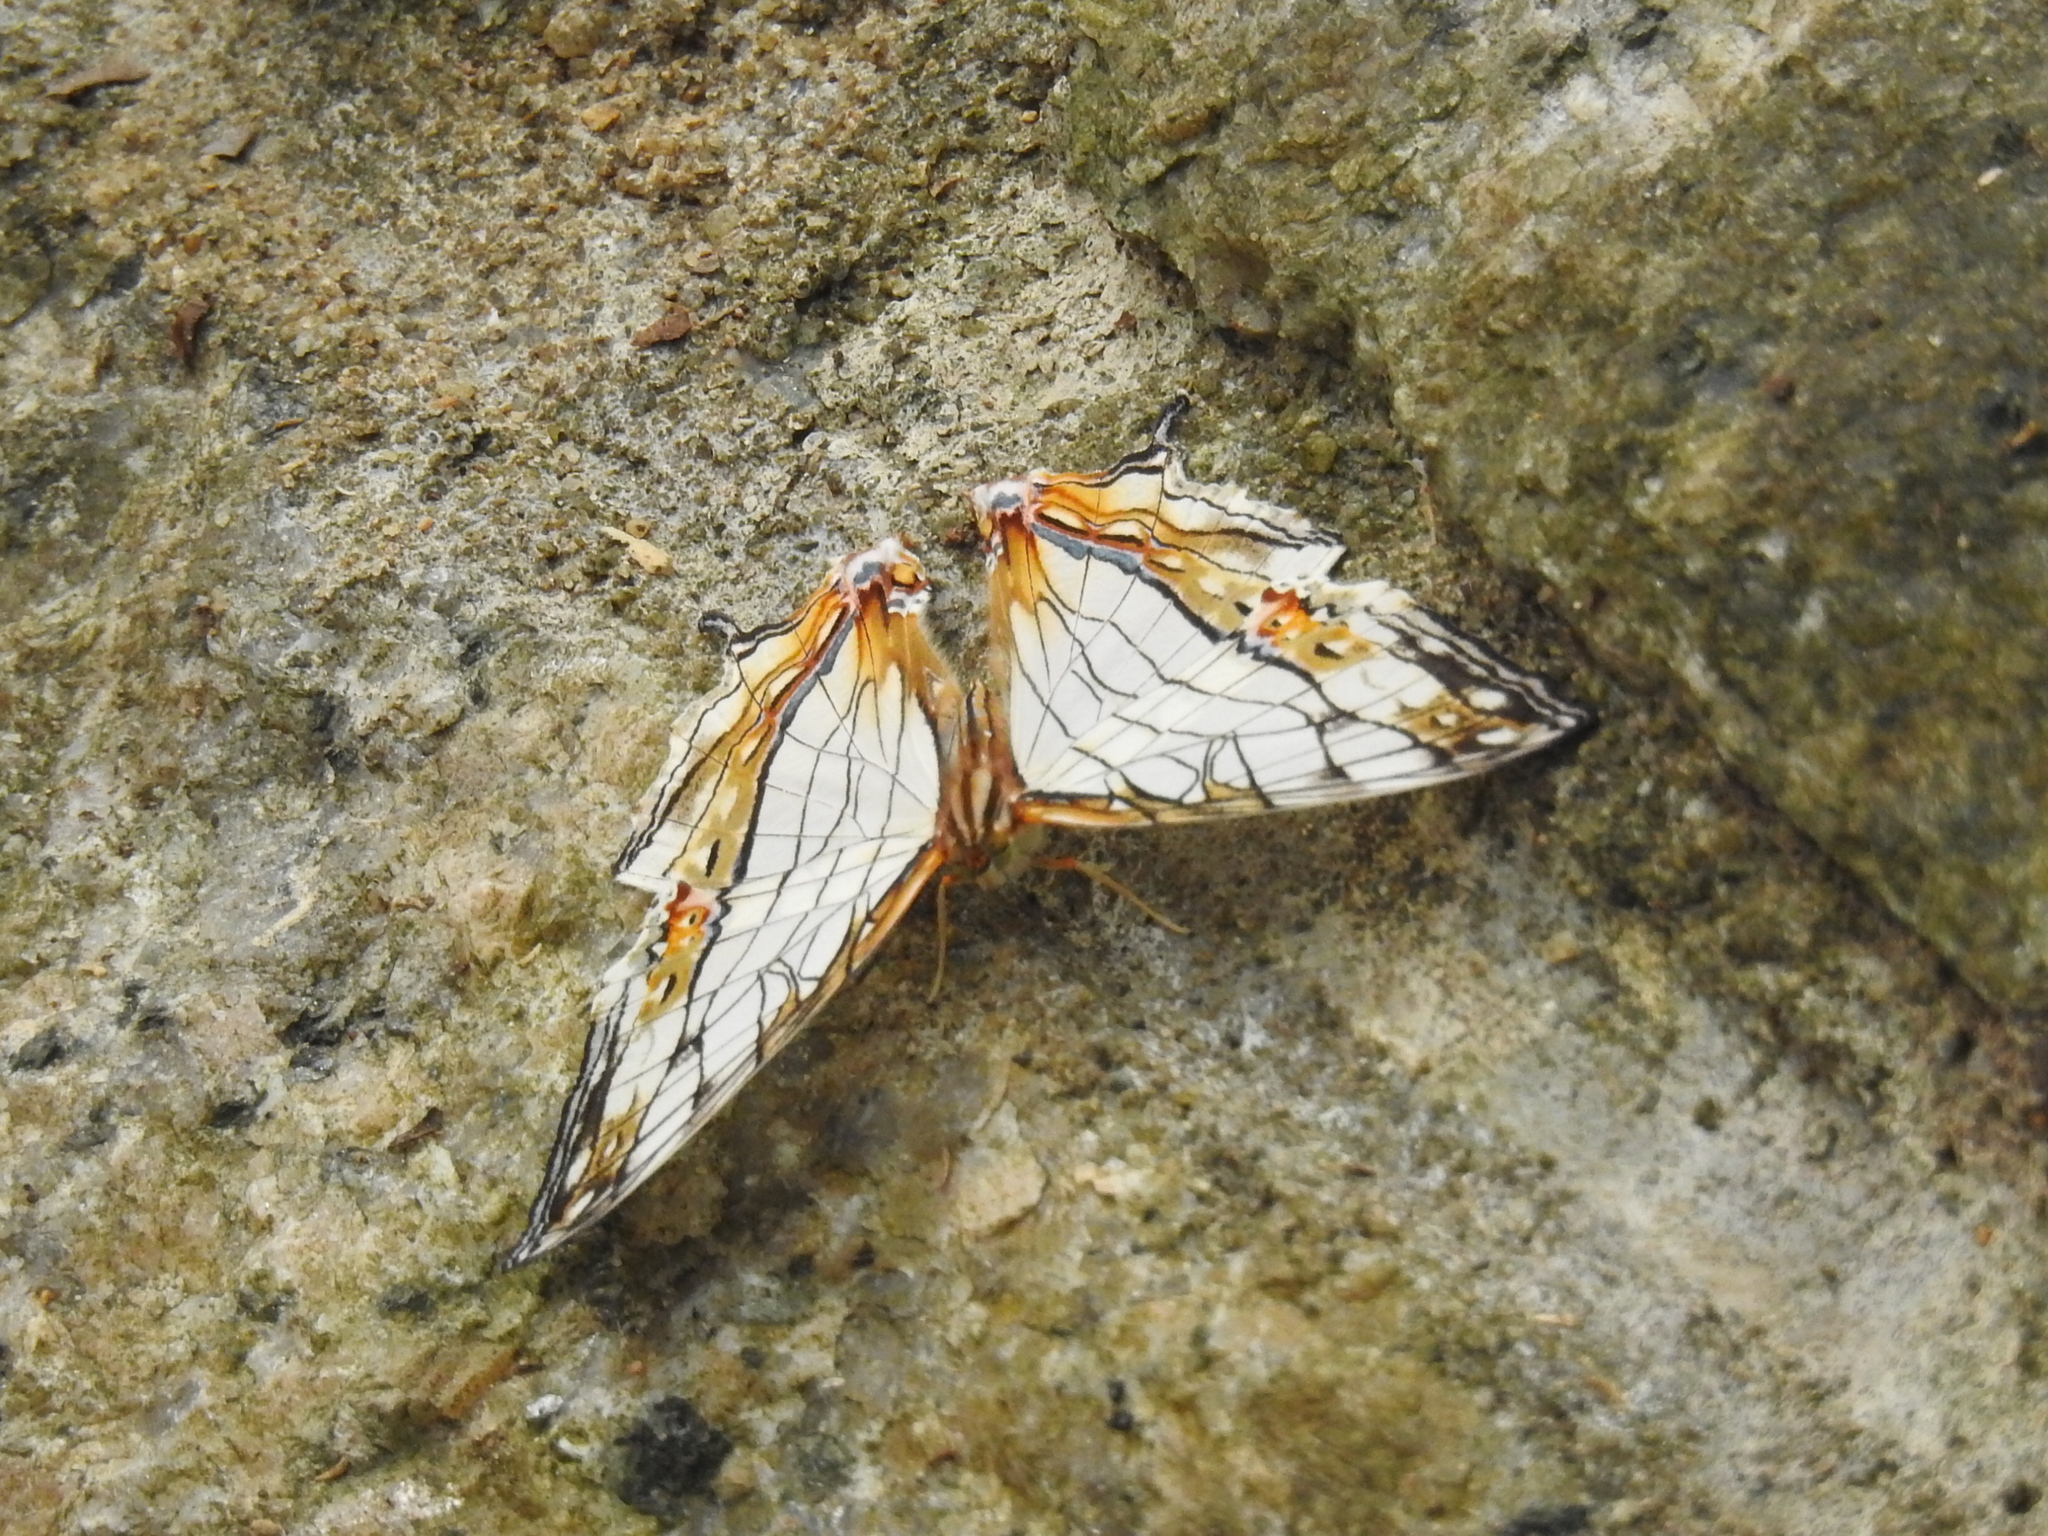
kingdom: Animalia
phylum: Arthropoda
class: Insecta
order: Lepidoptera
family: Nymphalidae
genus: Cyrestis
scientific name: Cyrestis thyodamas
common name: Common mapwing
